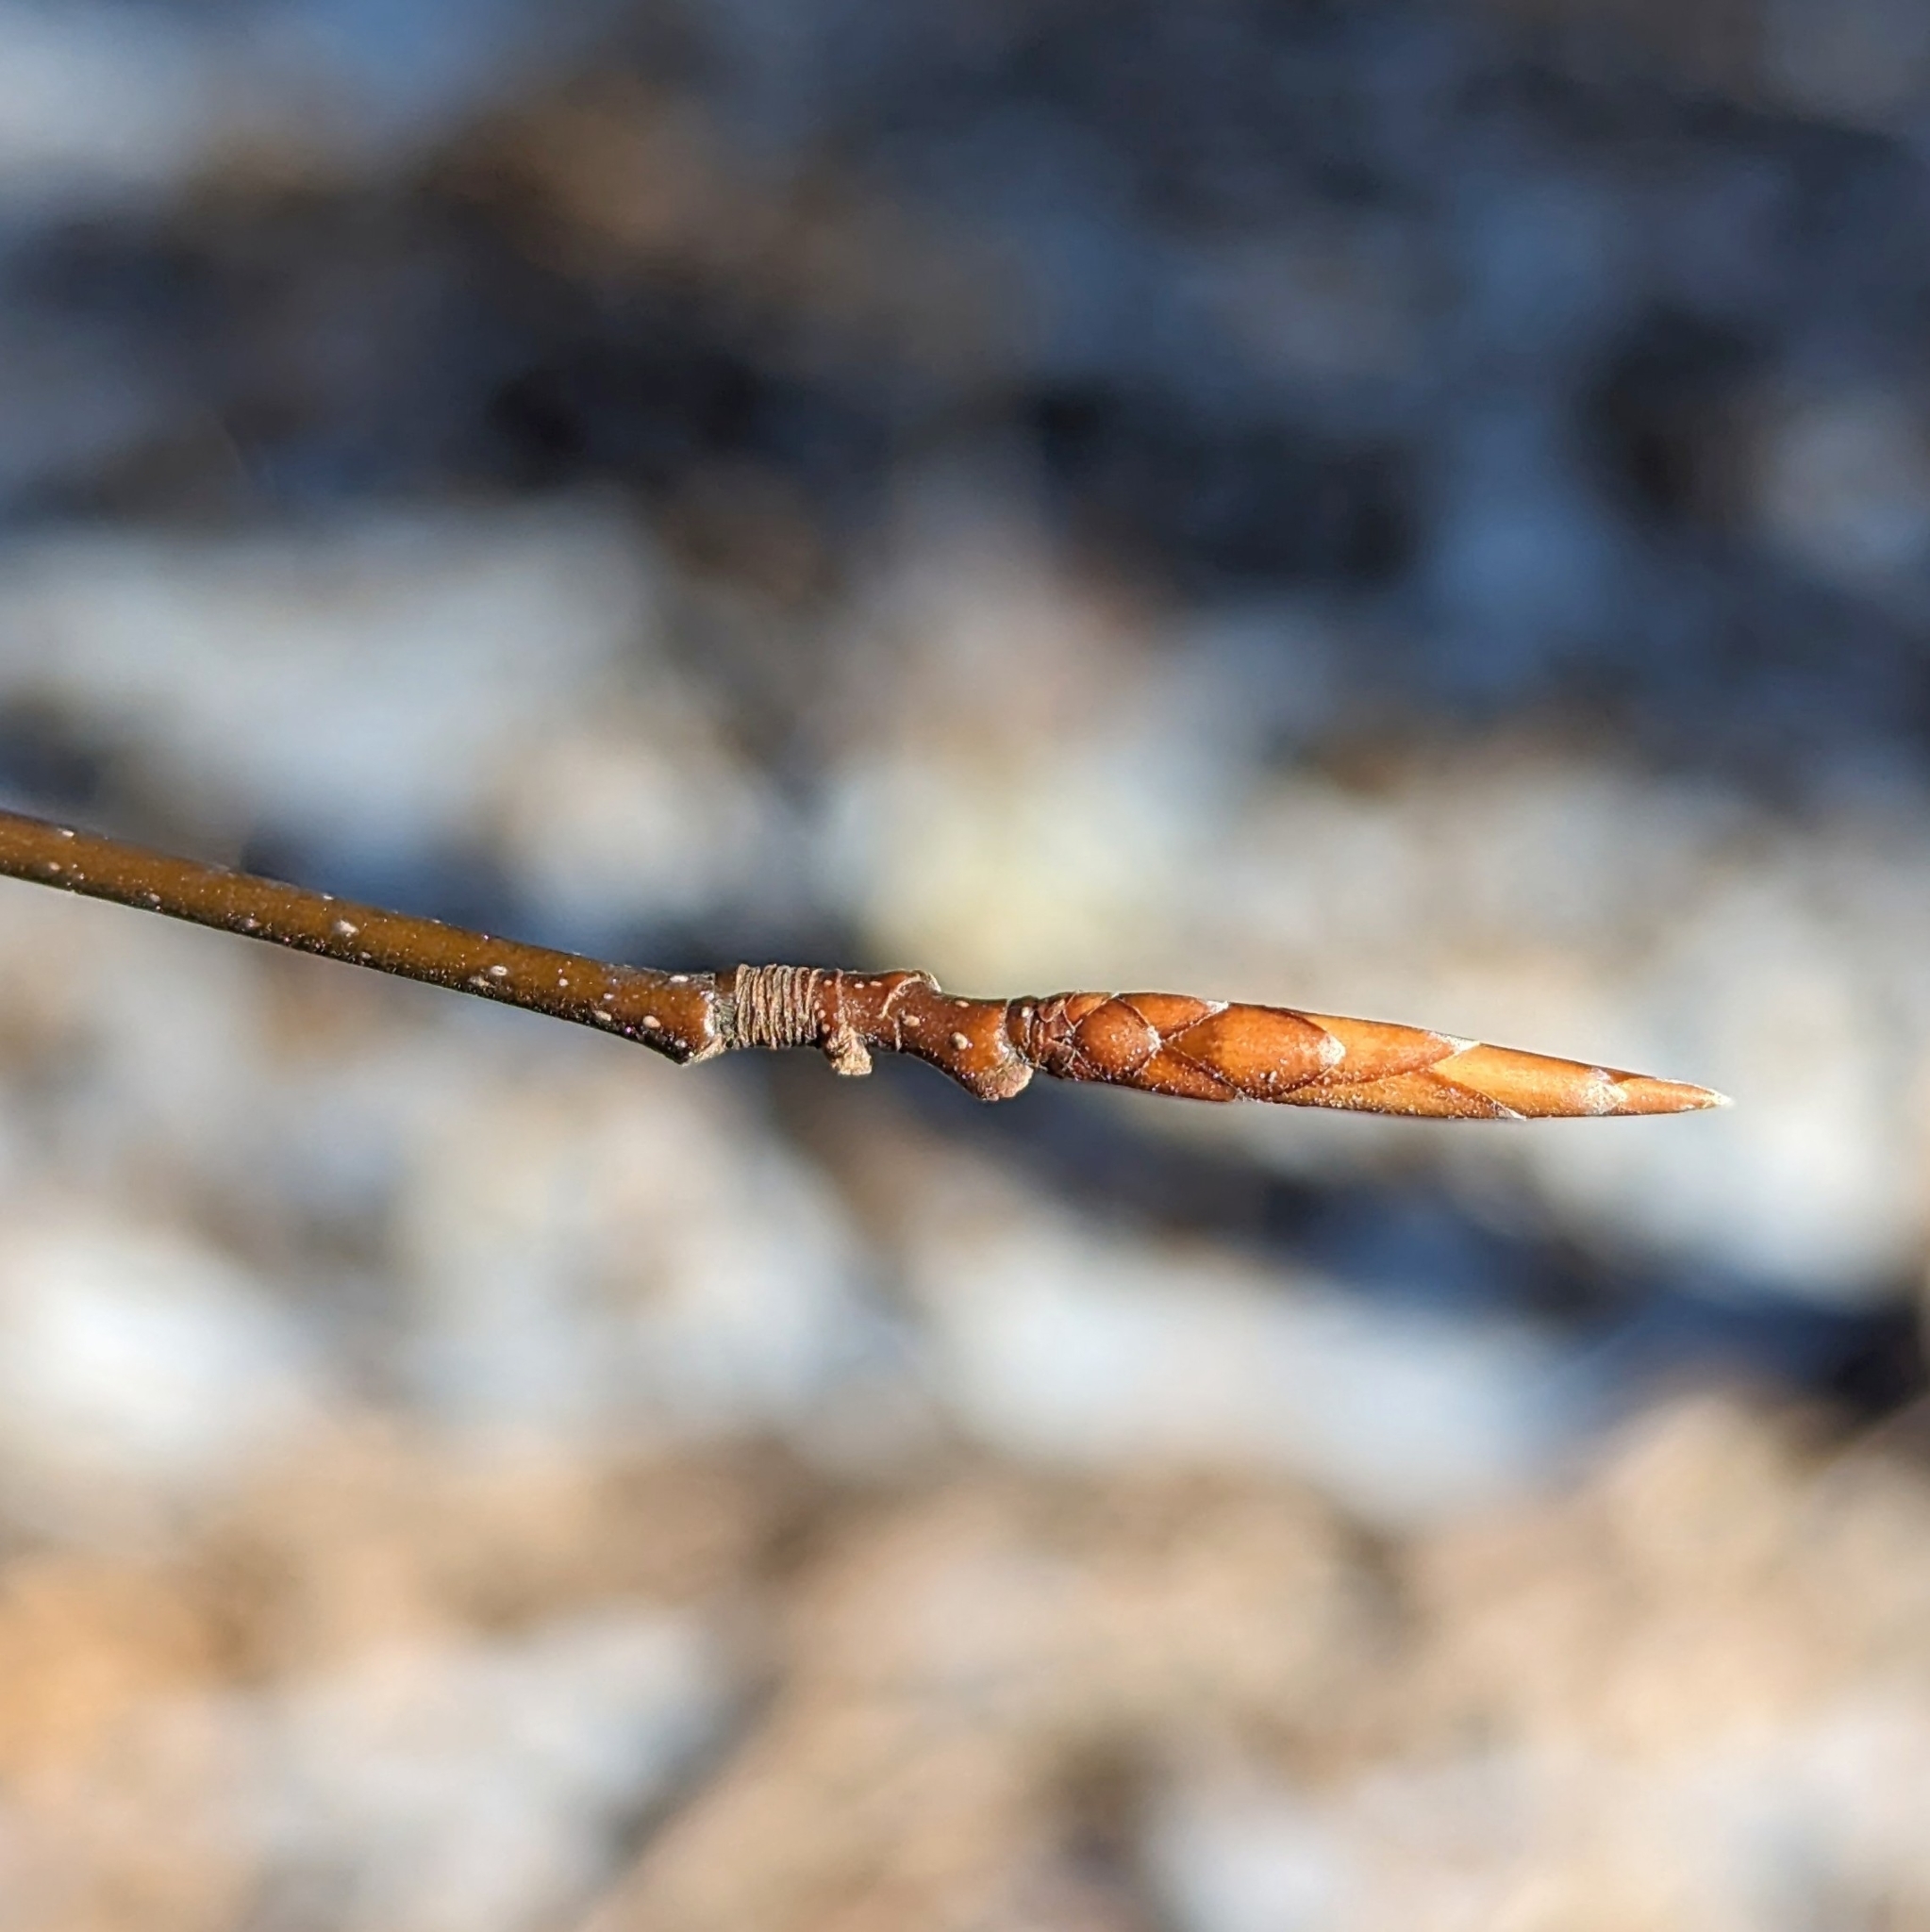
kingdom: Plantae
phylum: Tracheophyta
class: Magnoliopsida
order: Fagales
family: Fagaceae
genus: Fagus
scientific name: Fagus grandifolia
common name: American beech
